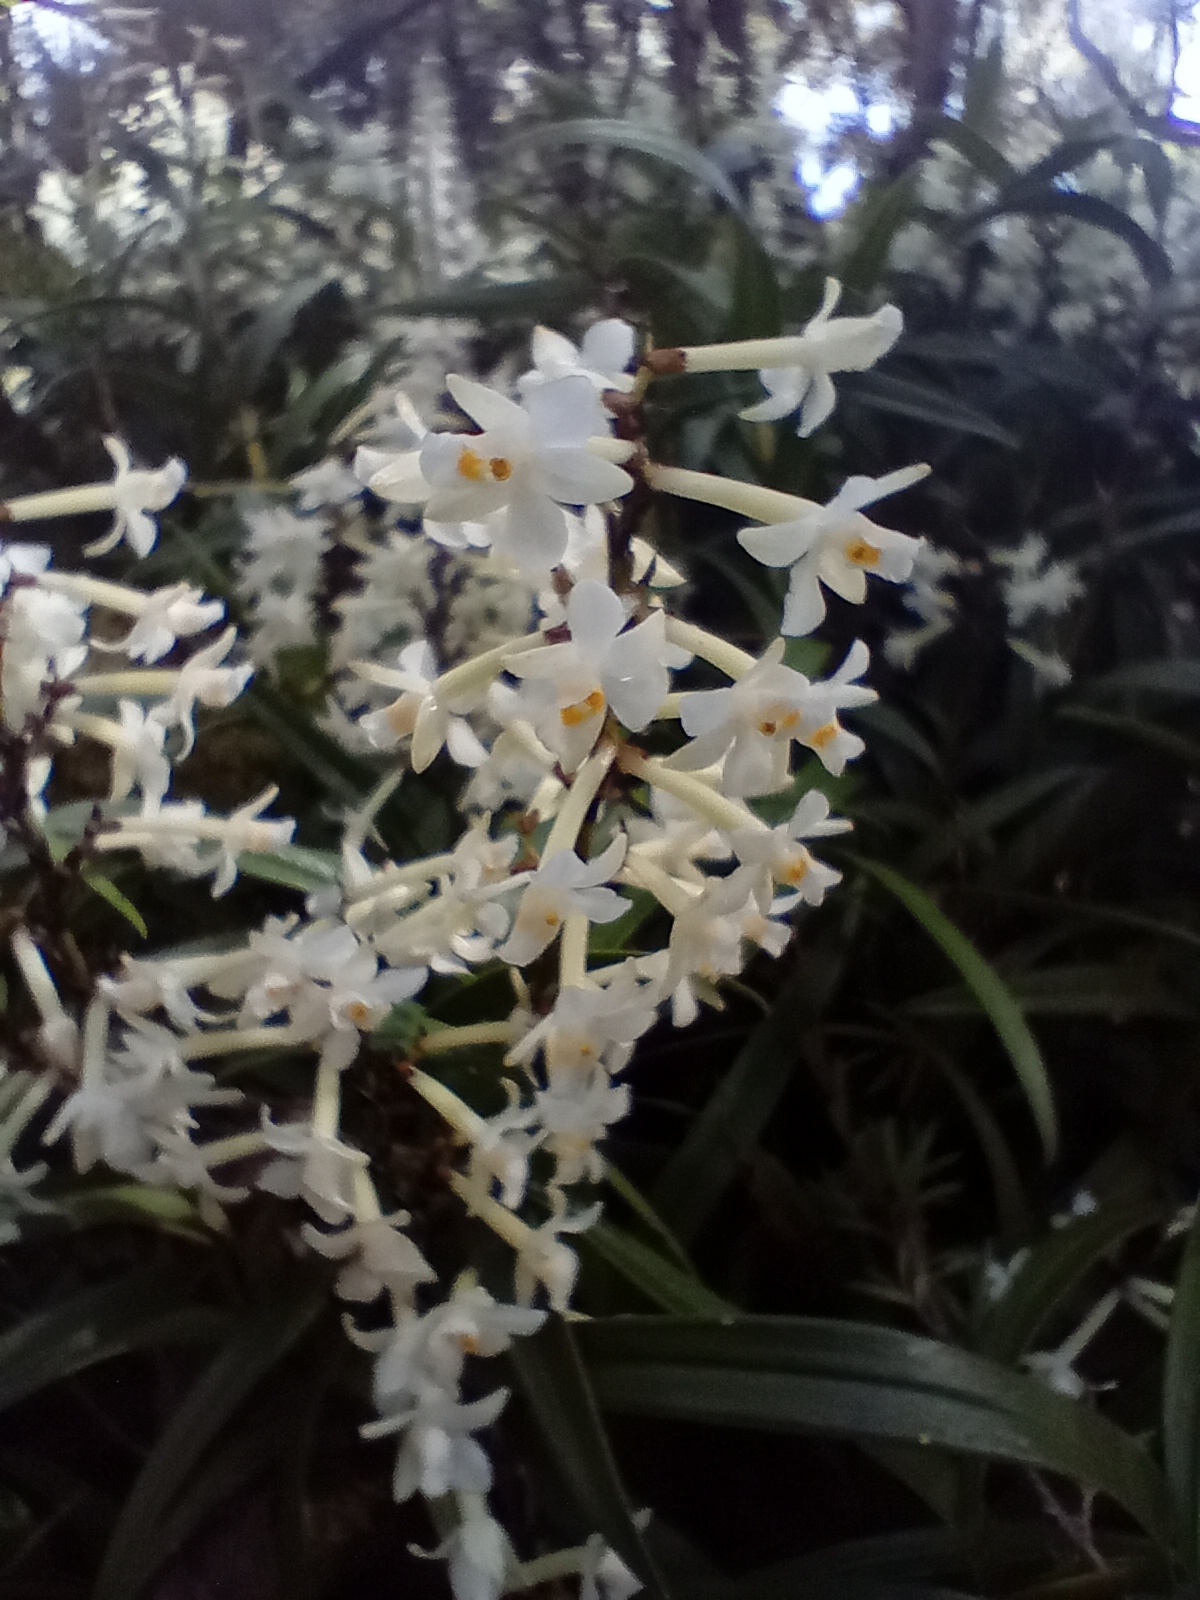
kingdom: Plantae
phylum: Tracheophyta
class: Liliopsida
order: Asparagales
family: Orchidaceae
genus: Earina
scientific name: Earina autumnalis
